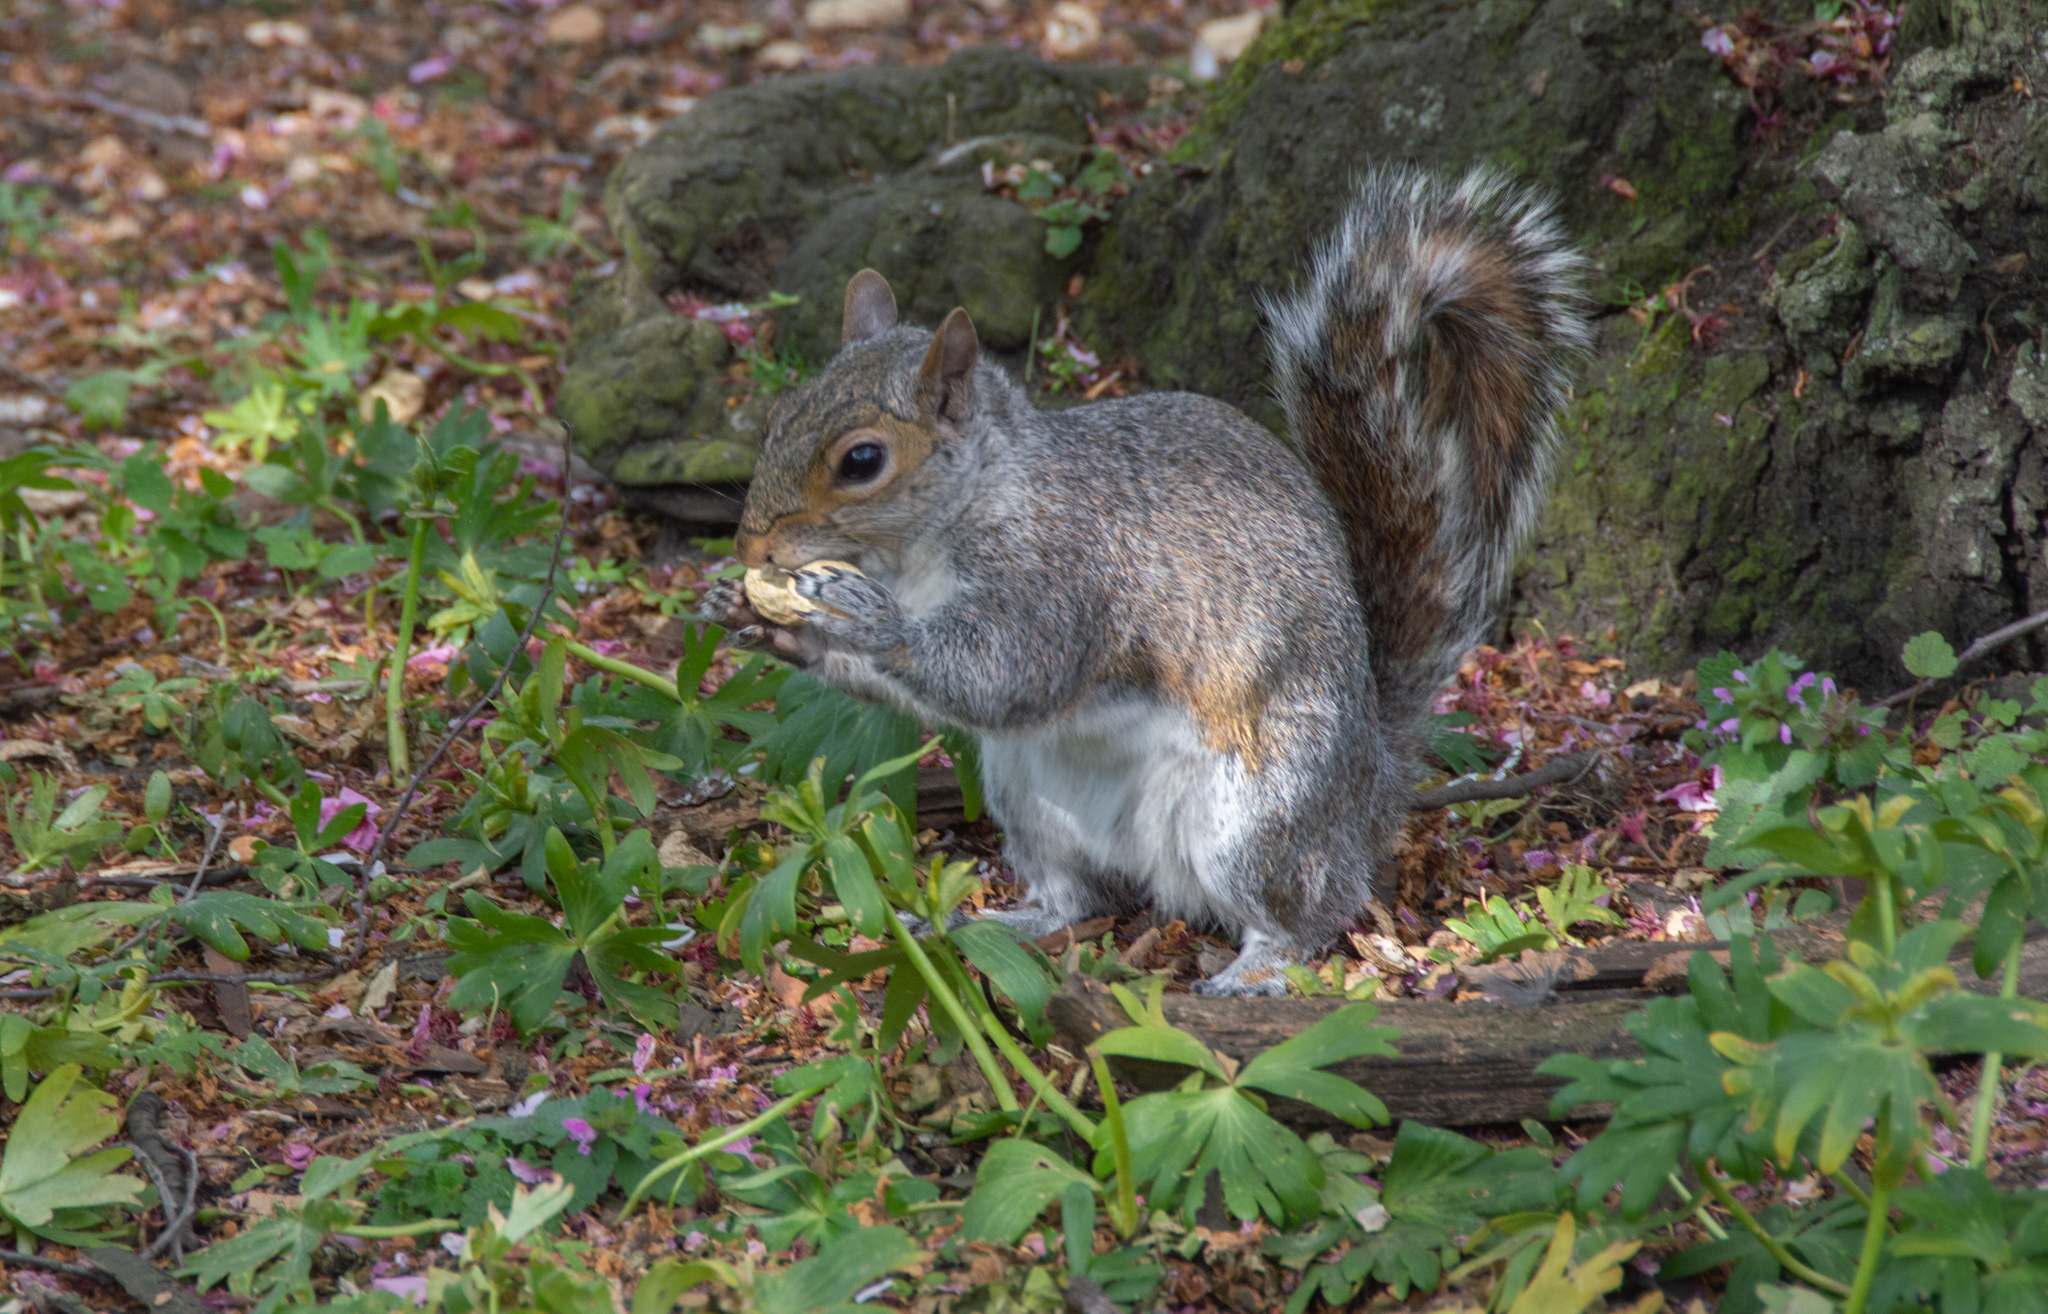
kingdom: Animalia
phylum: Chordata
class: Mammalia
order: Rodentia
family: Sciuridae
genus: Sciurus
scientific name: Sciurus carolinensis
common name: Eastern gray squirrel
